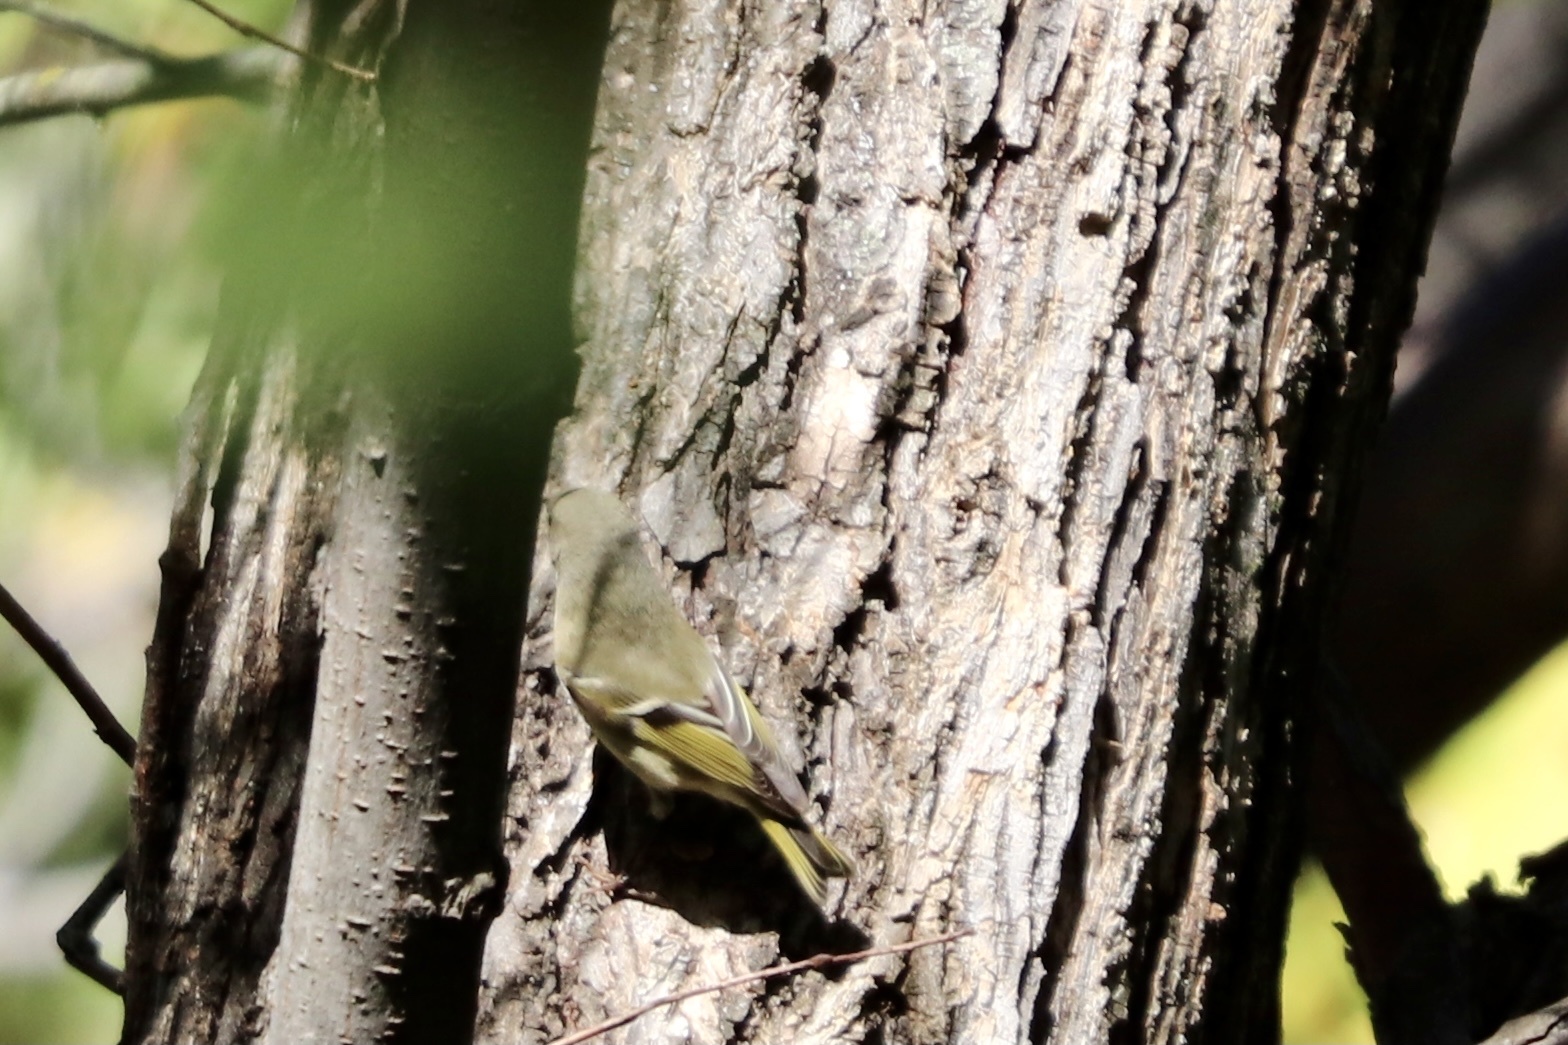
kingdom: Animalia
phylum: Chordata
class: Aves
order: Passeriformes
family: Regulidae
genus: Regulus
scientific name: Regulus calendula
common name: Ruby-crowned kinglet
